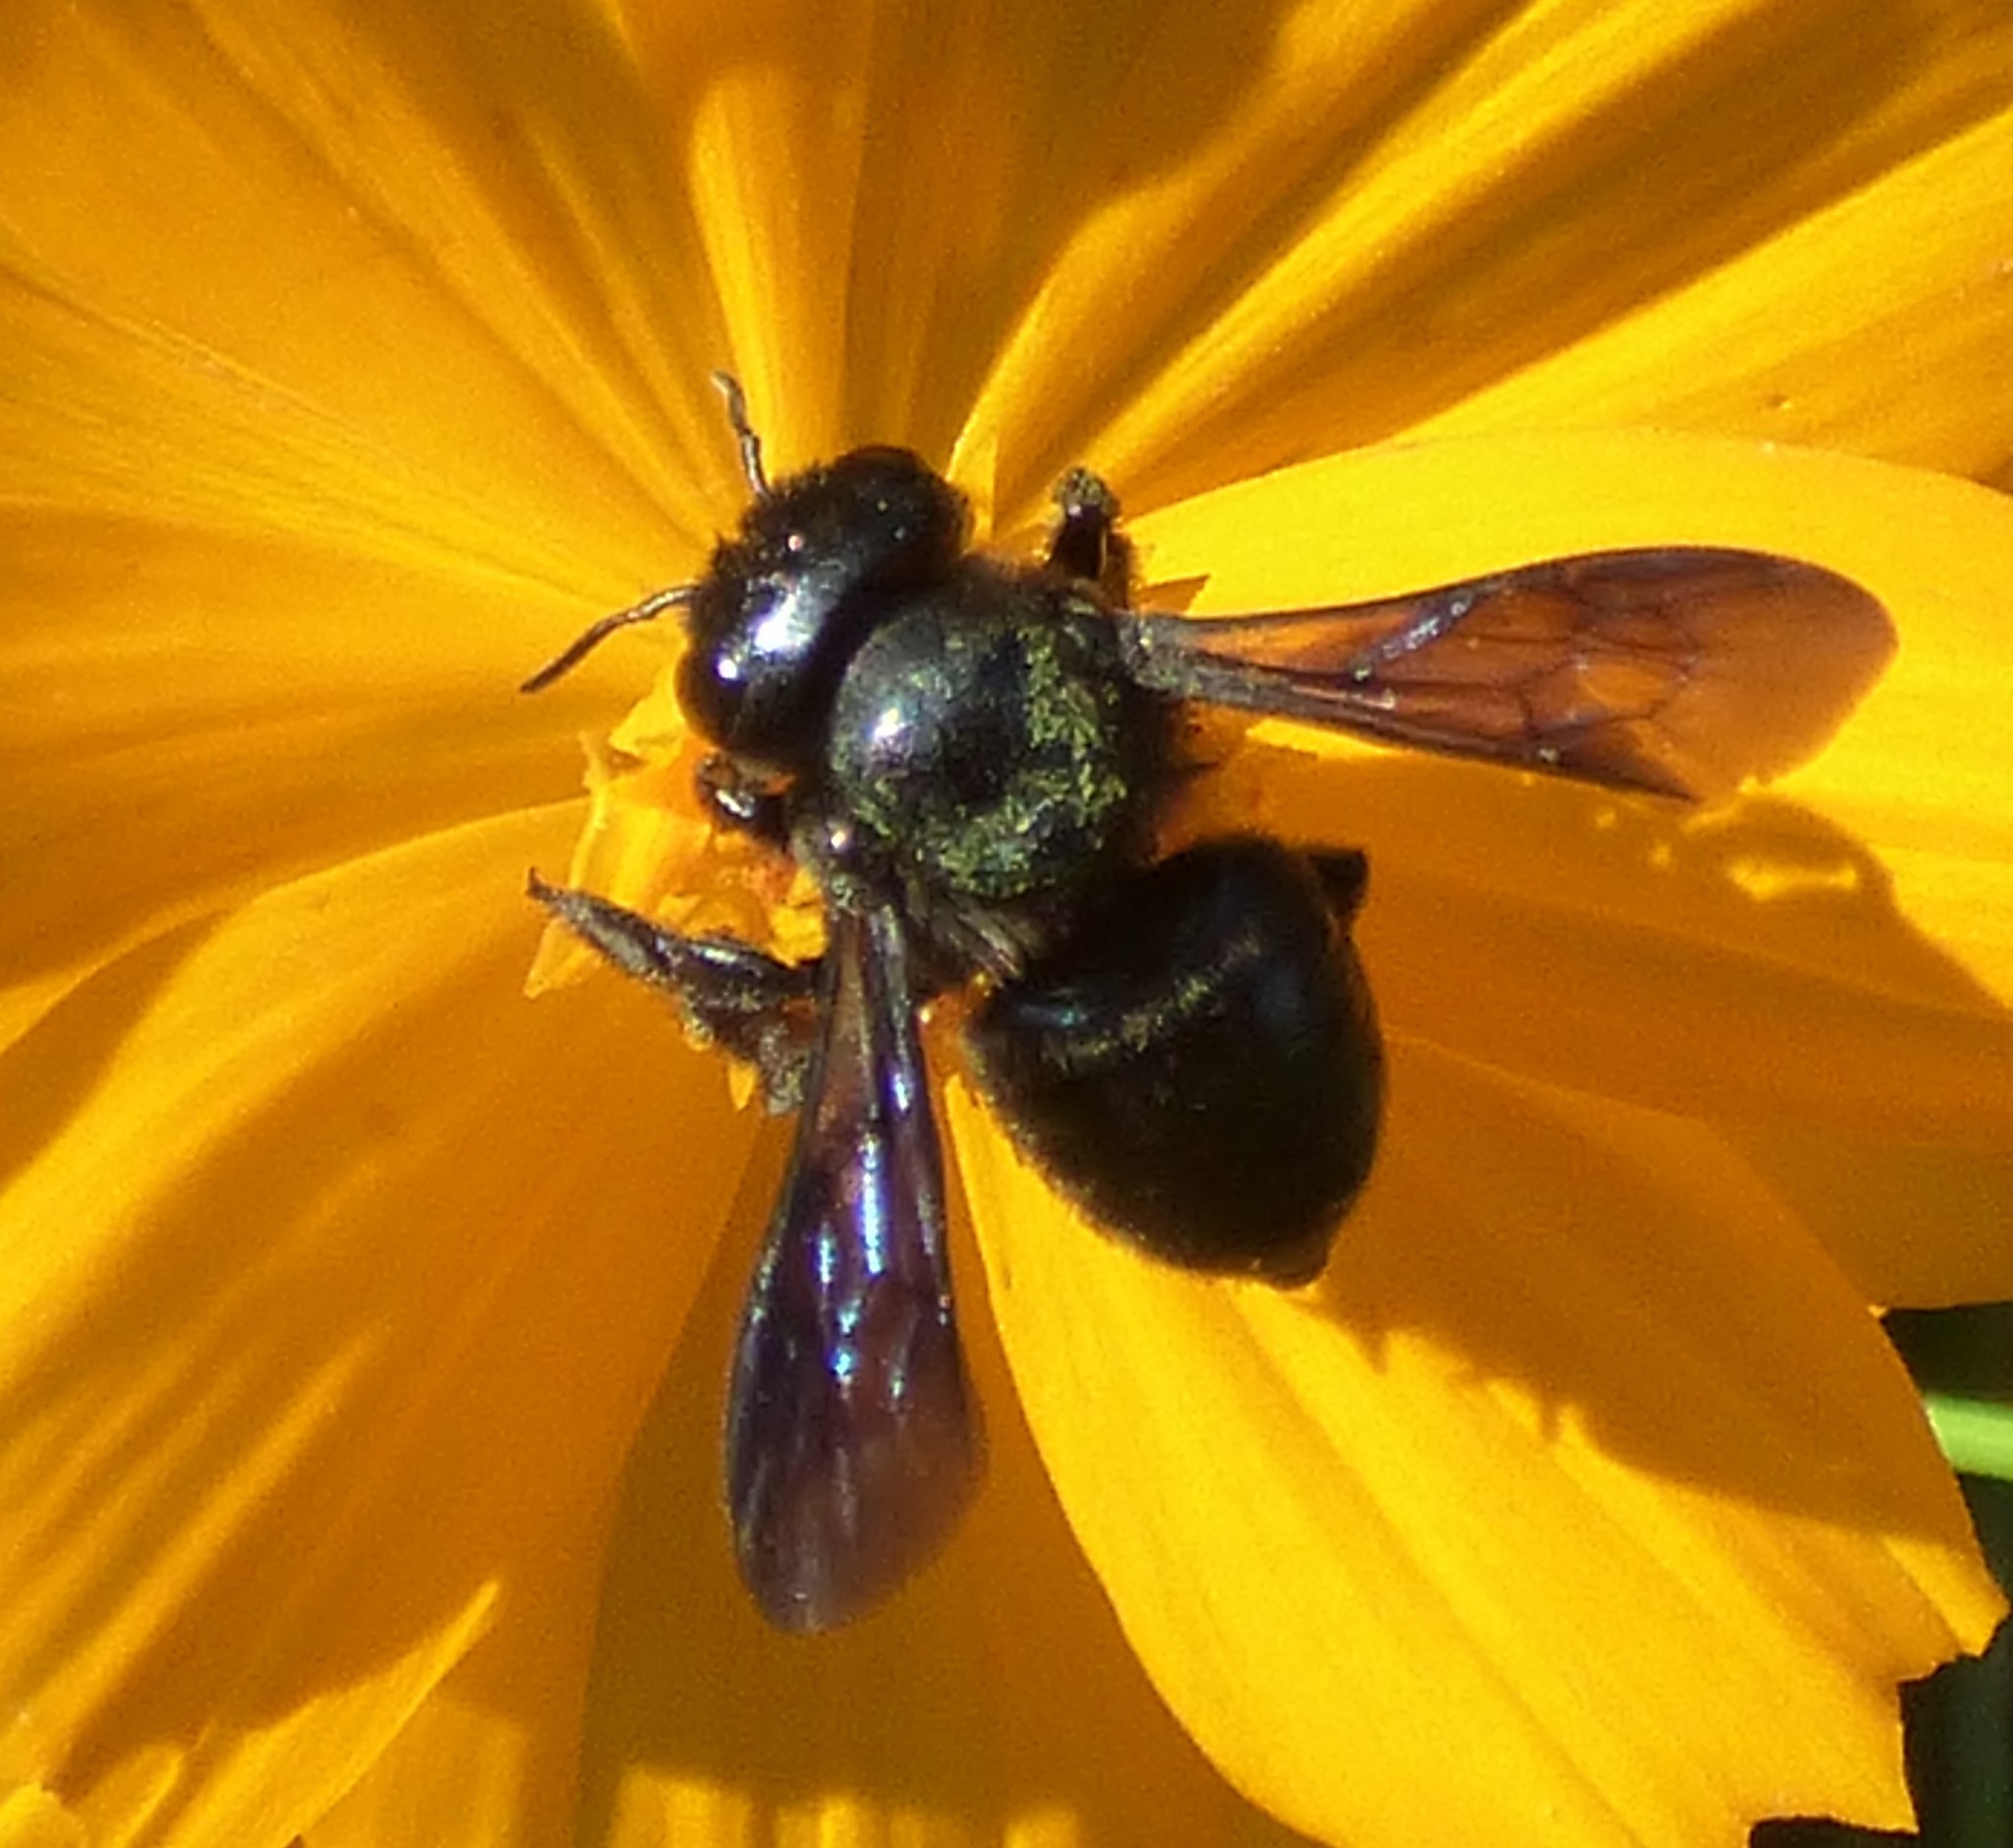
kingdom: Animalia
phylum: Arthropoda
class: Insecta
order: Hymenoptera
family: Megachilidae
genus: Megachile
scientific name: Megachile xylocopoides
